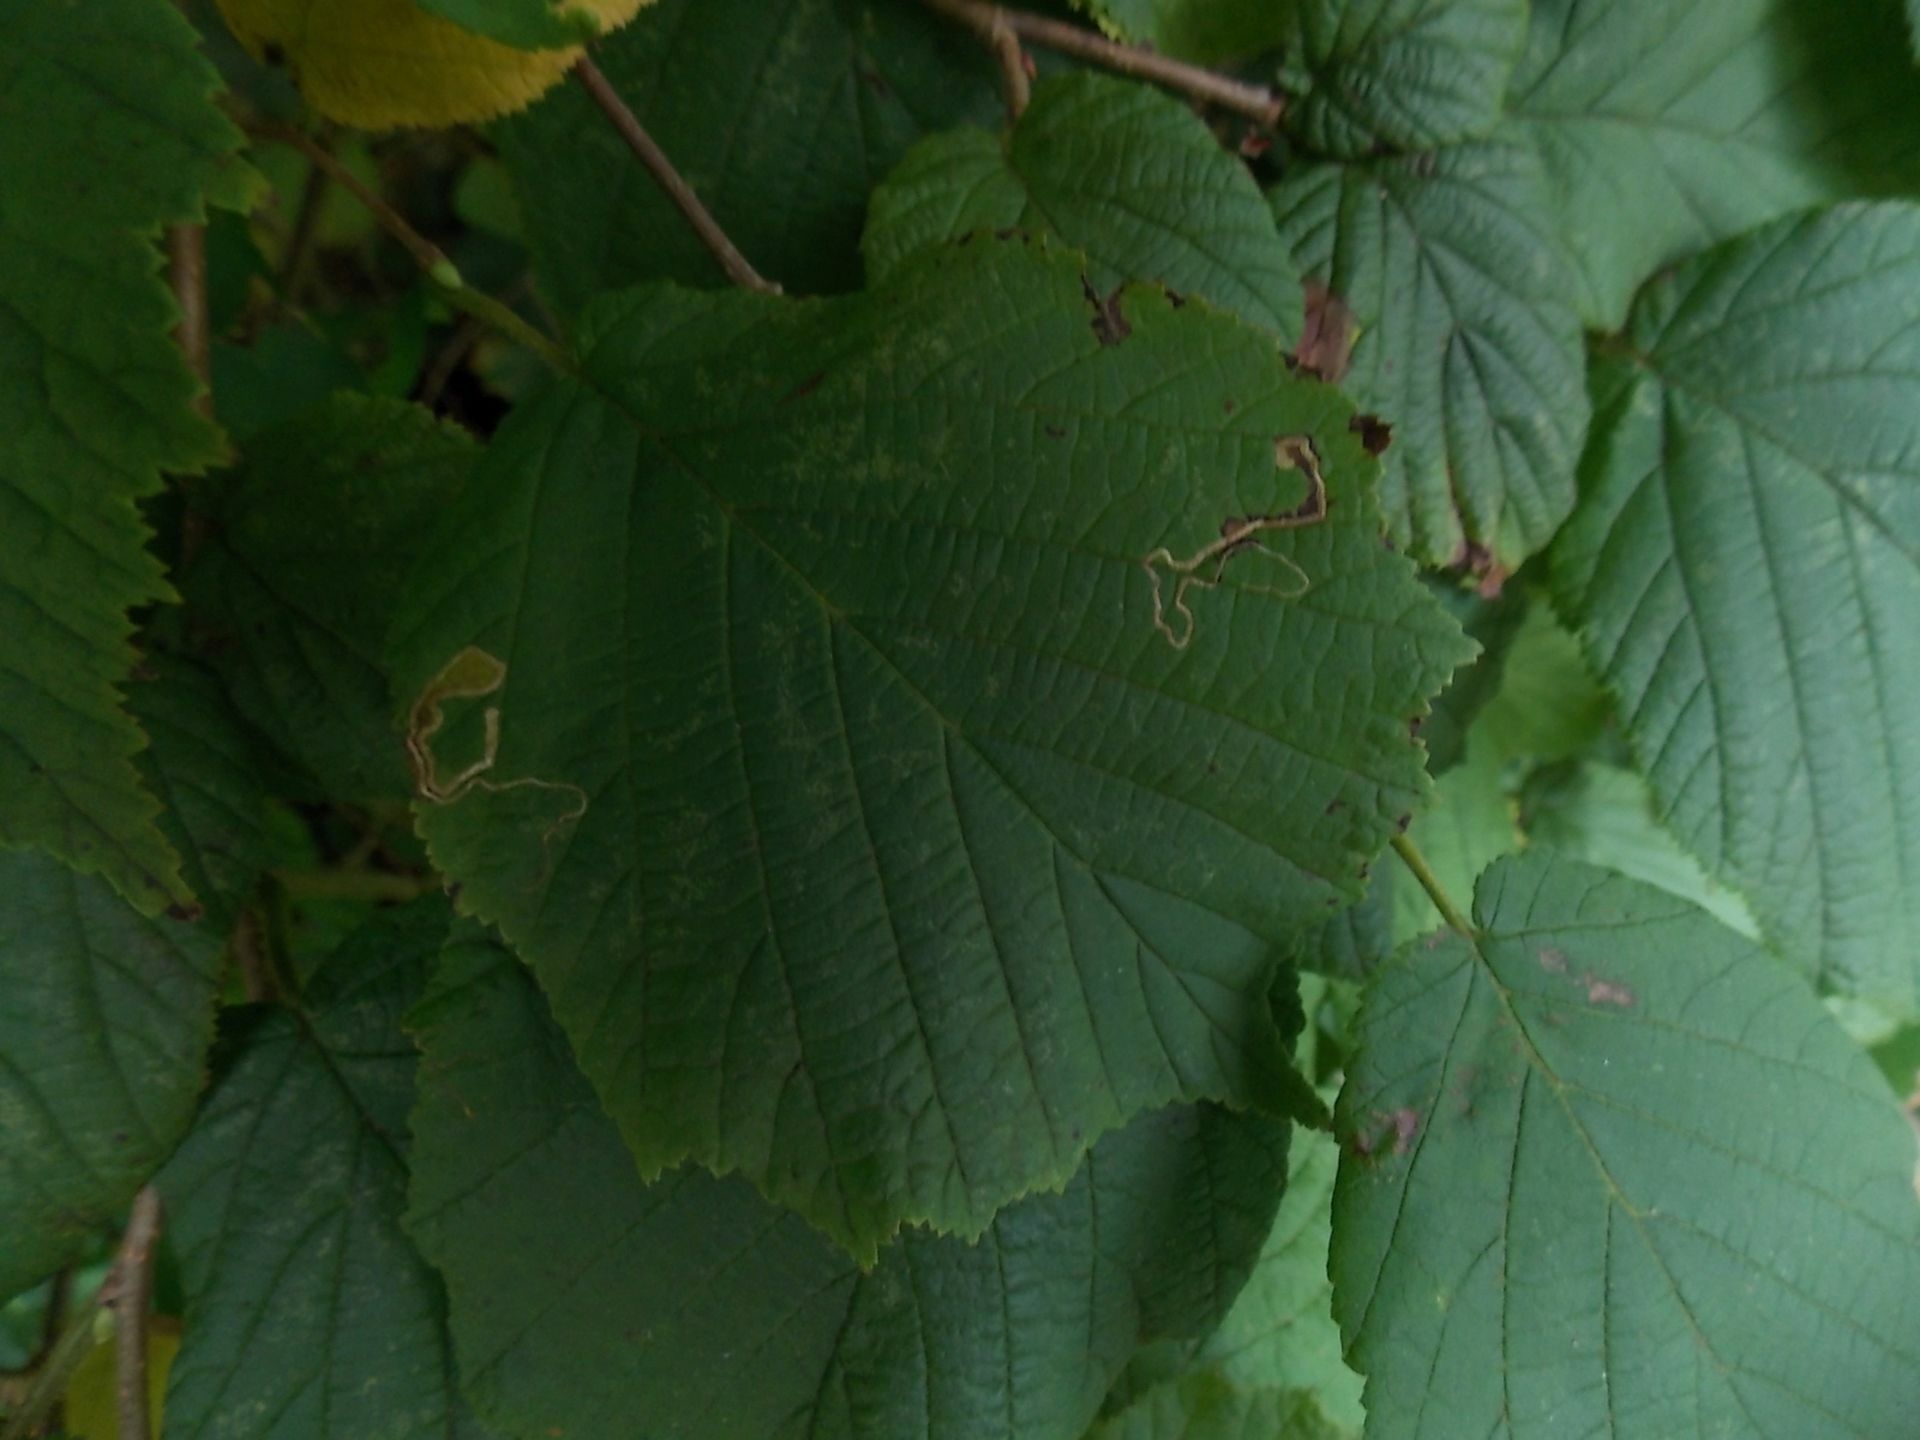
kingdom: Plantae
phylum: Tracheophyta
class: Magnoliopsida
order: Fagales
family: Betulaceae
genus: Corylus
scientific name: Corylus avellana
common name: European hazel
